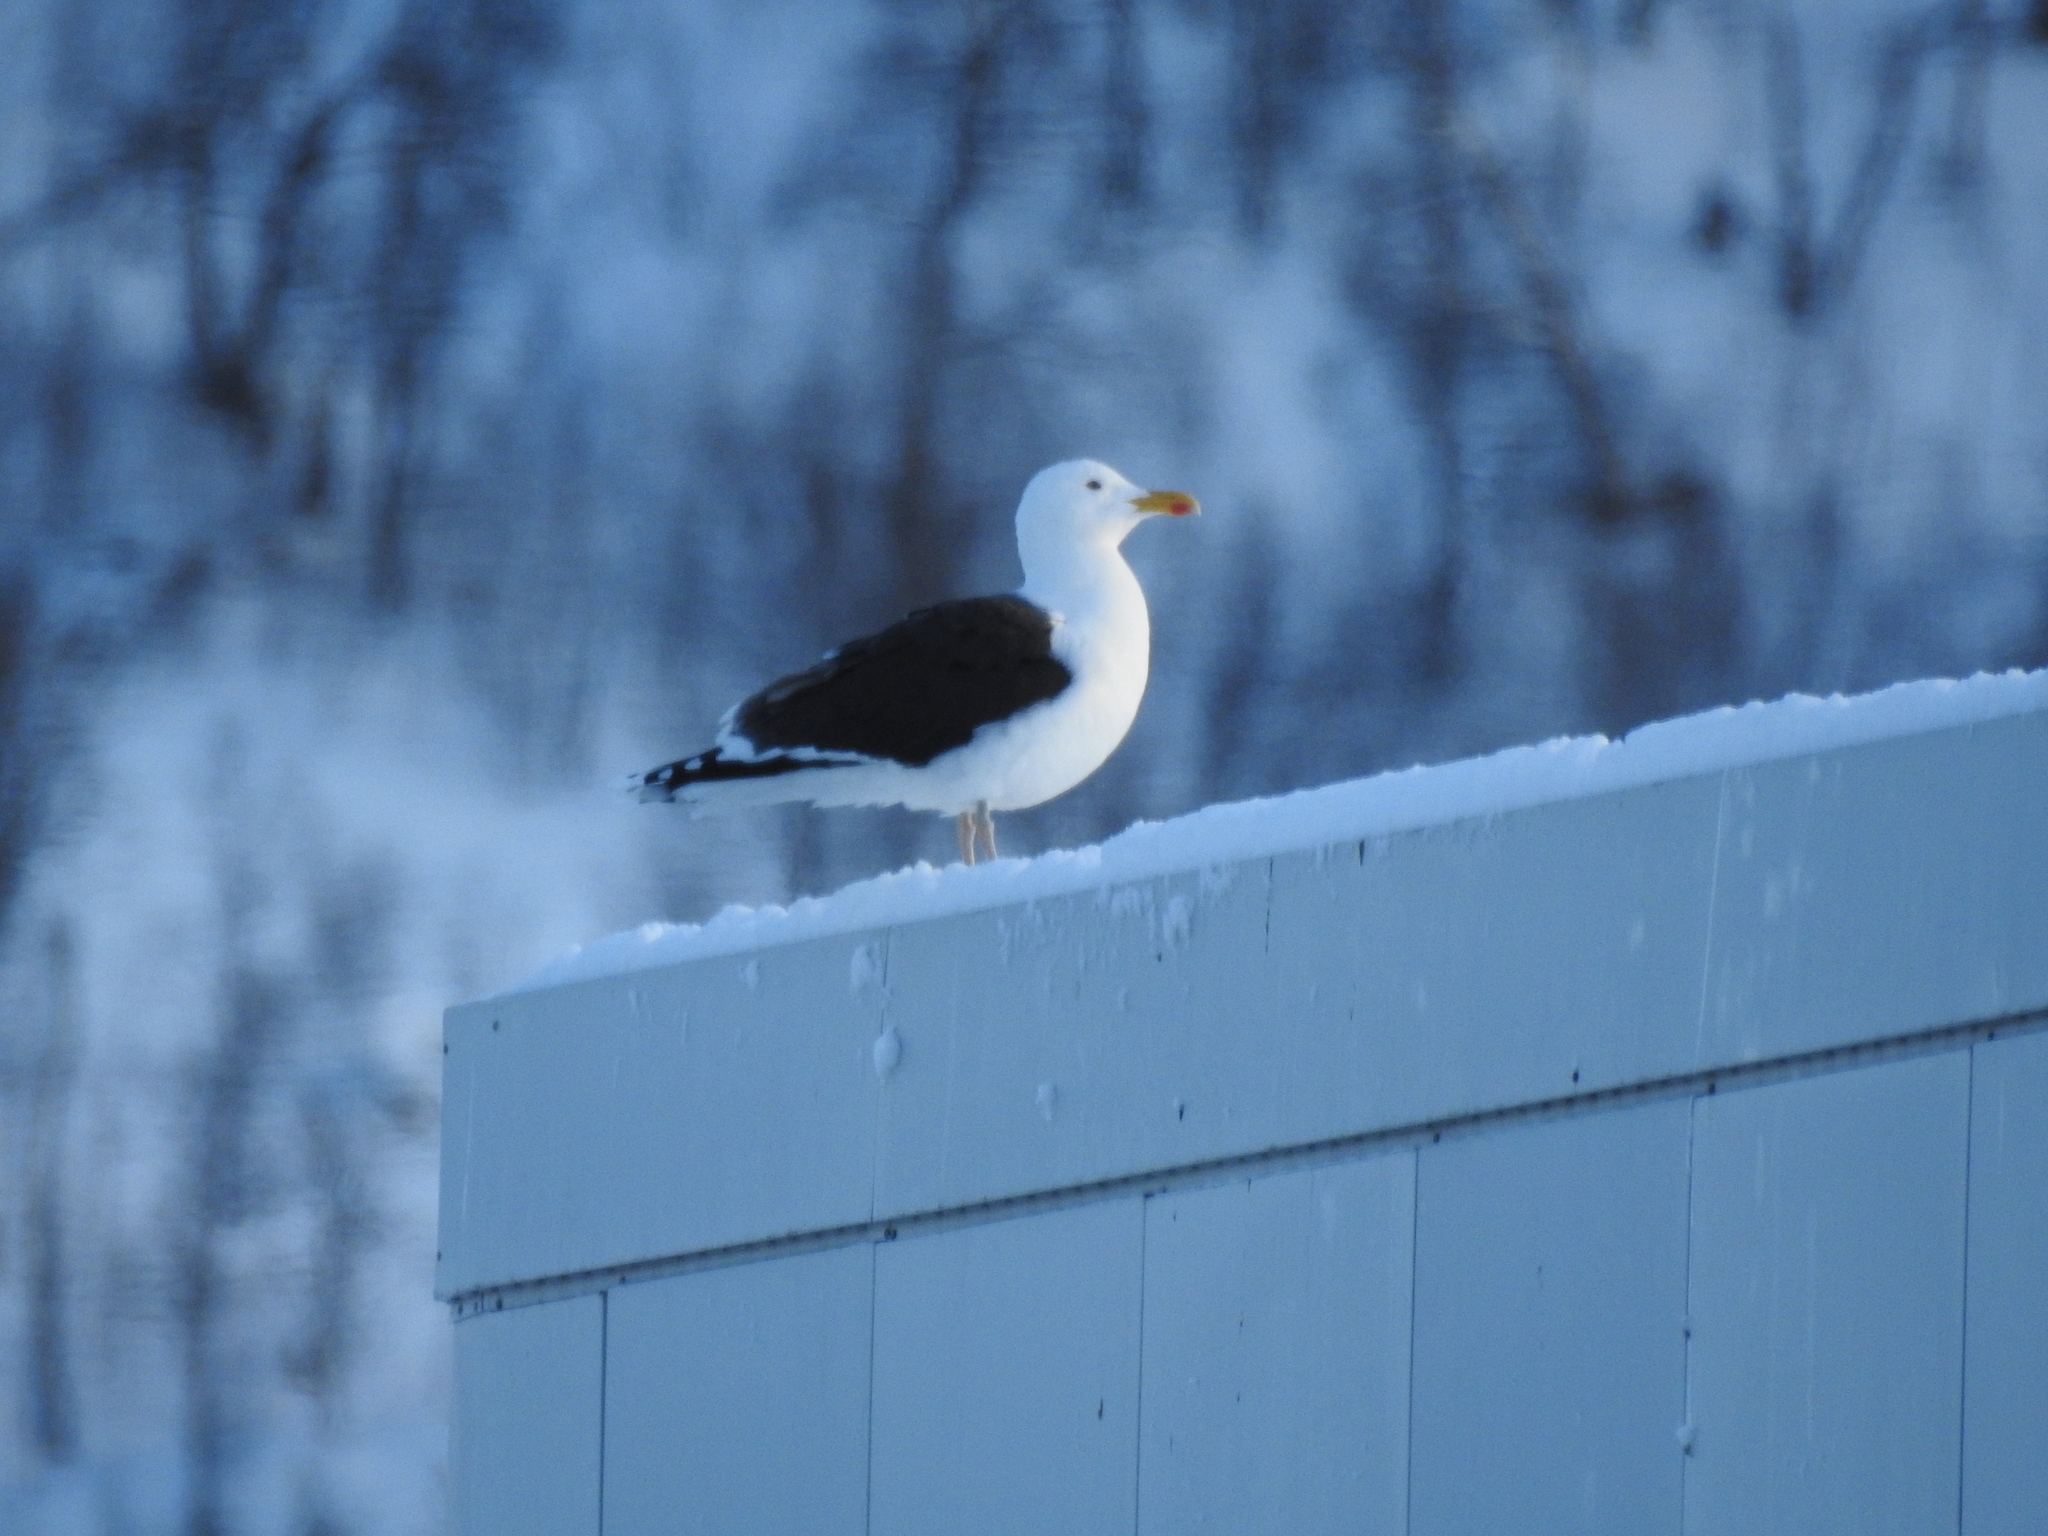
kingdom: Animalia
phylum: Chordata
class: Aves
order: Charadriiformes
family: Laridae
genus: Larus
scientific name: Larus marinus
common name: Great black-backed gull
